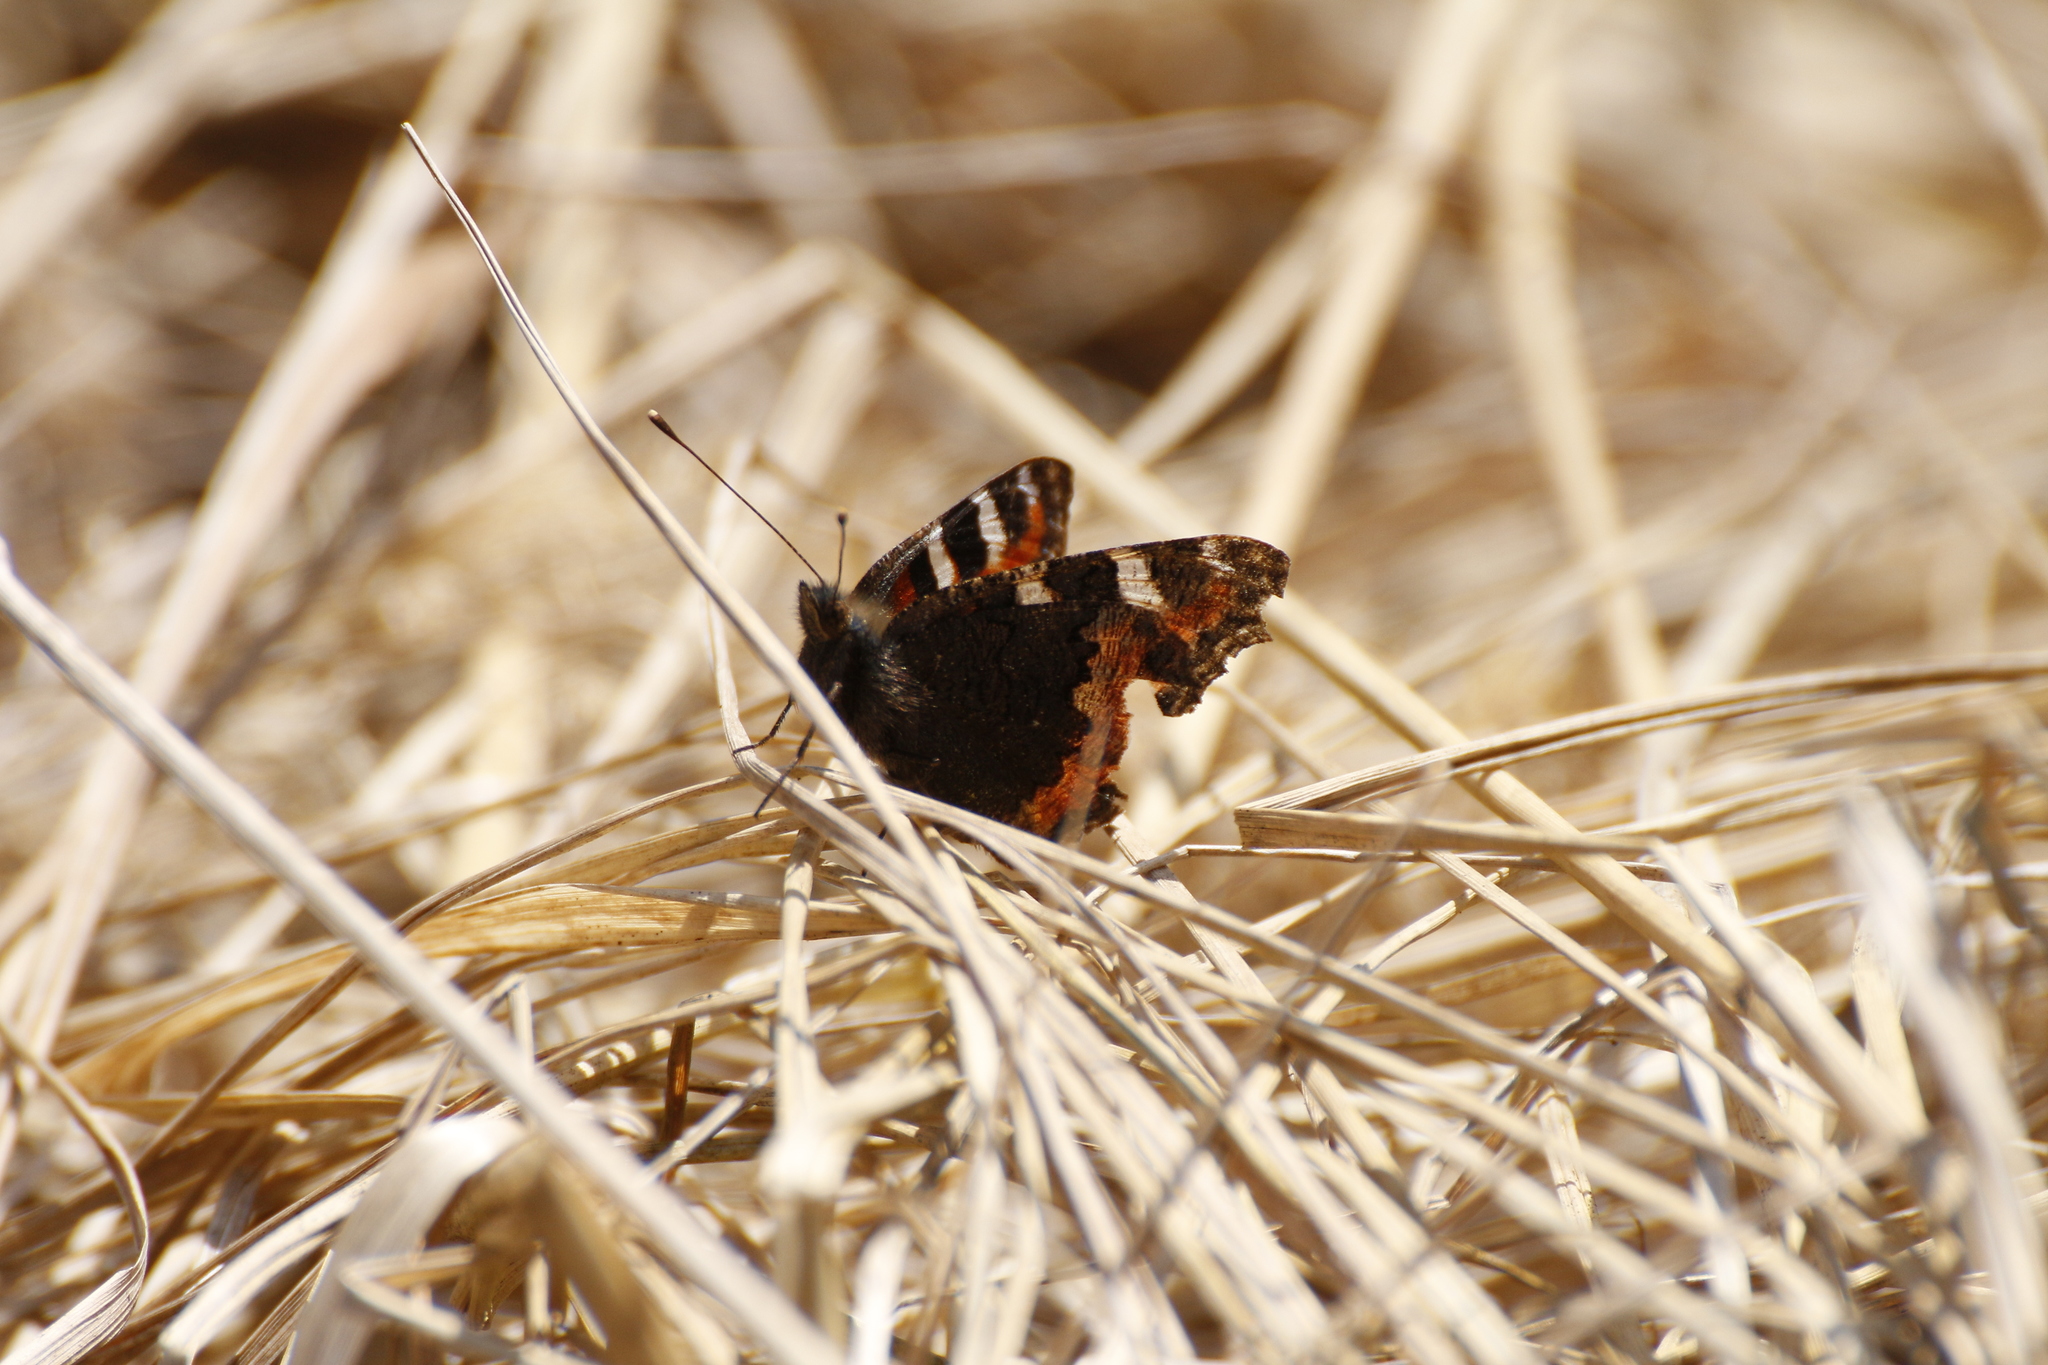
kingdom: Animalia
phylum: Arthropoda
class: Insecta
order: Lepidoptera
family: Nymphalidae
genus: Aglais
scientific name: Aglais urticae
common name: Small tortoiseshell
